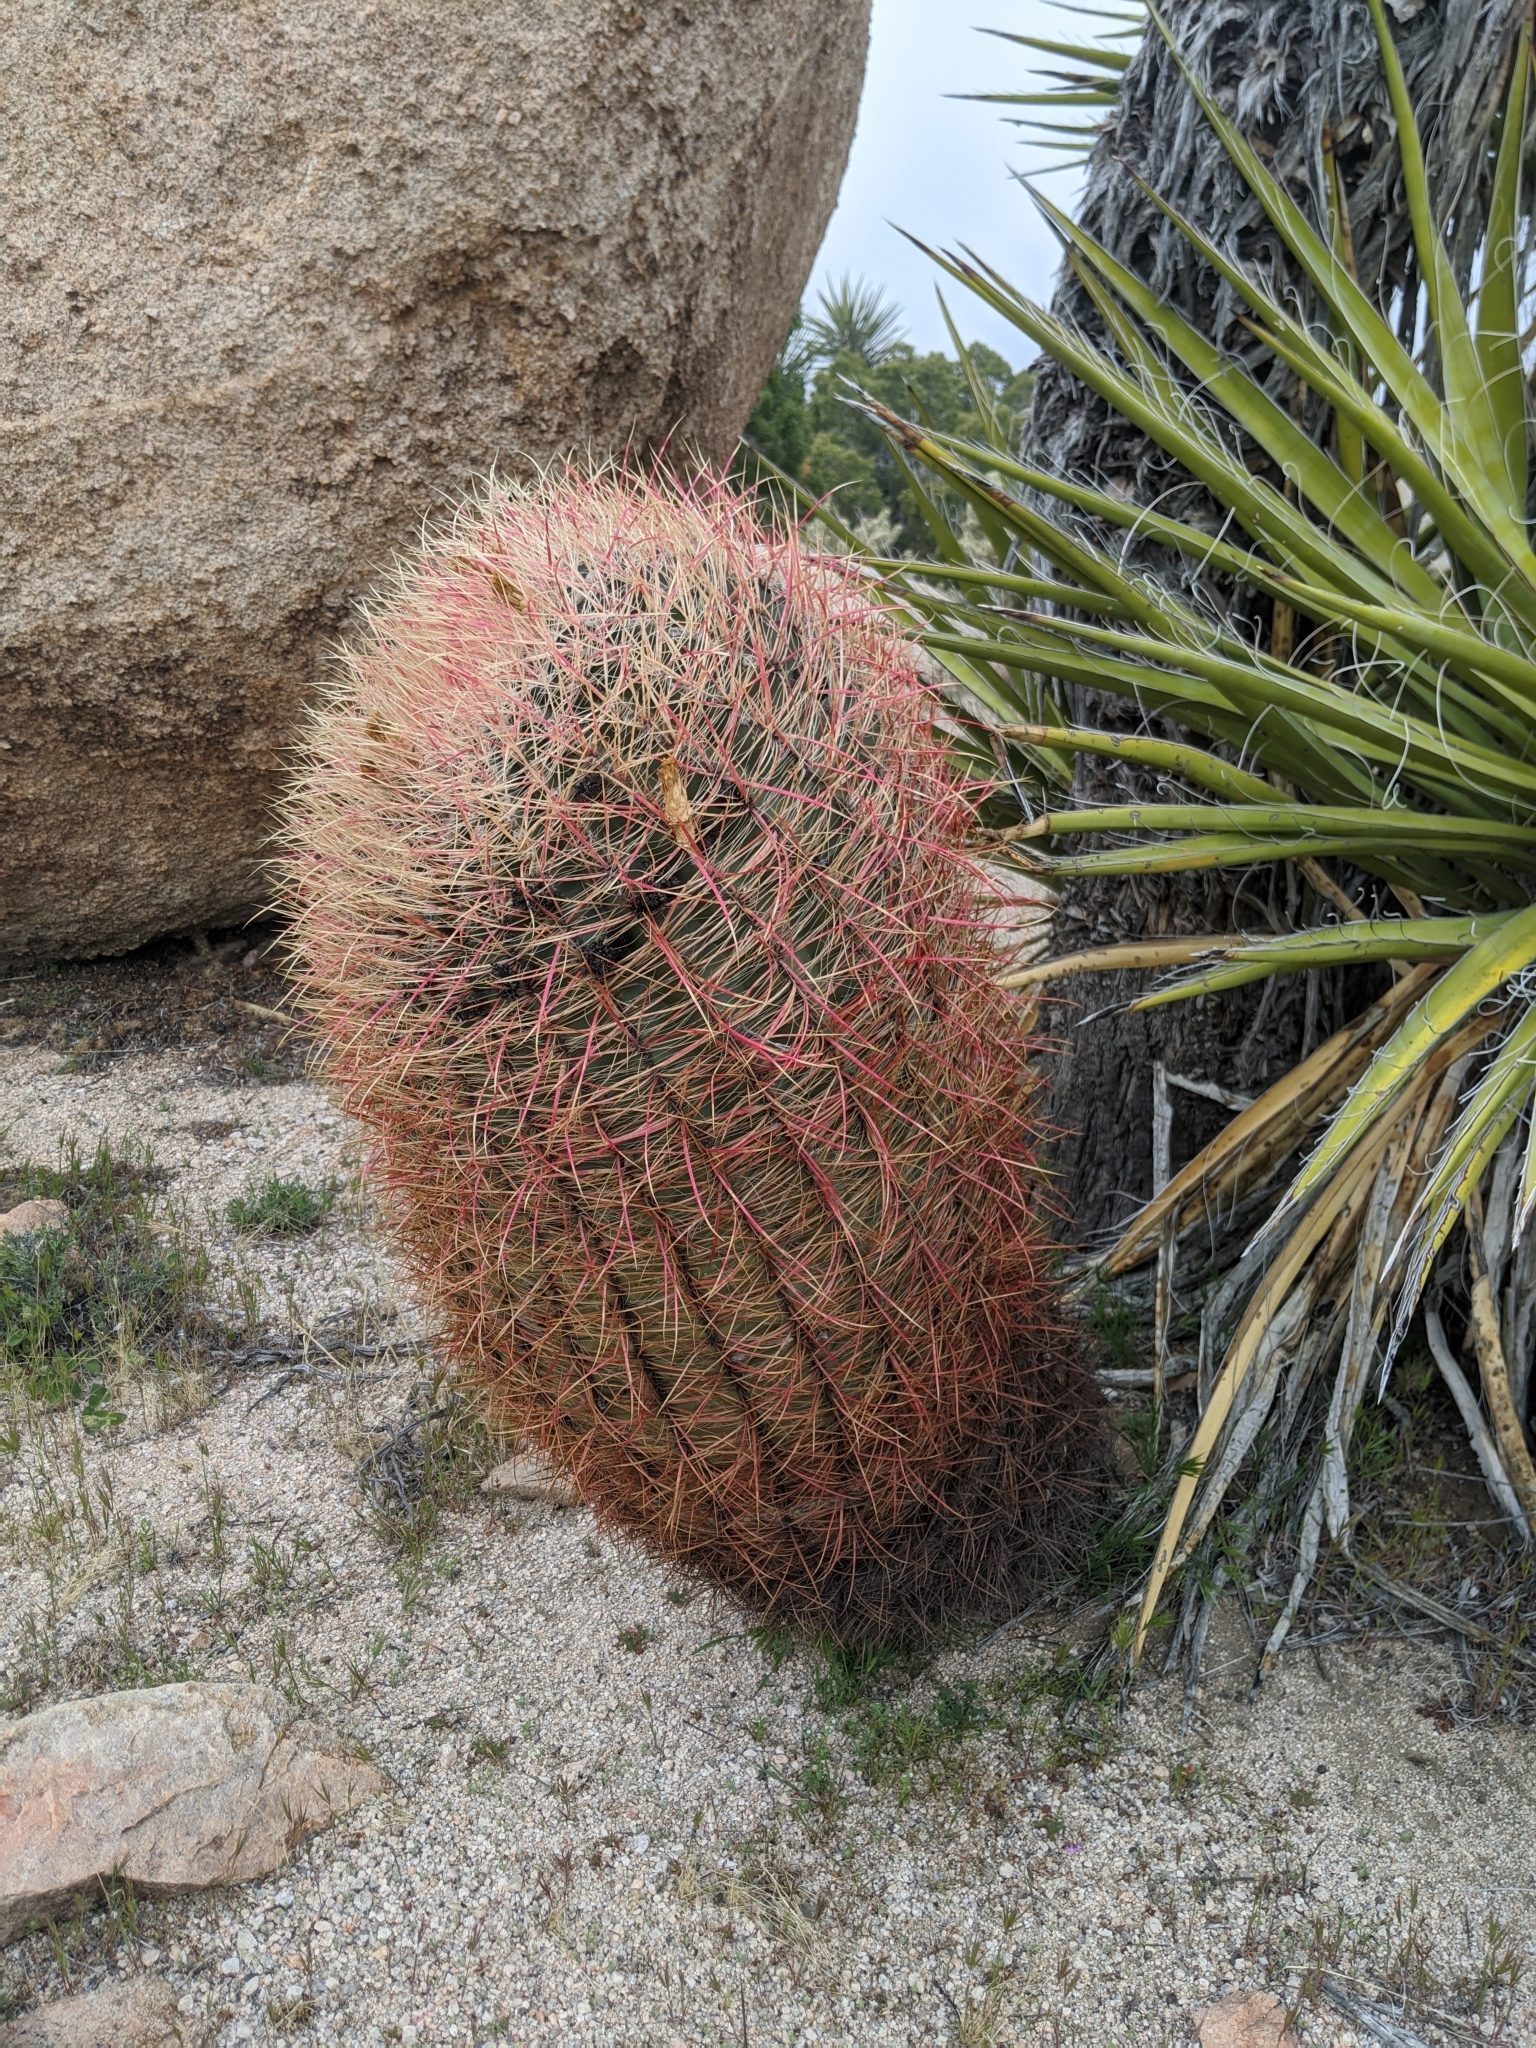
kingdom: Plantae
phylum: Tracheophyta
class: Magnoliopsida
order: Caryophyllales
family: Cactaceae
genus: Ferocactus
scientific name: Ferocactus cylindraceus
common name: California barrel cactus
